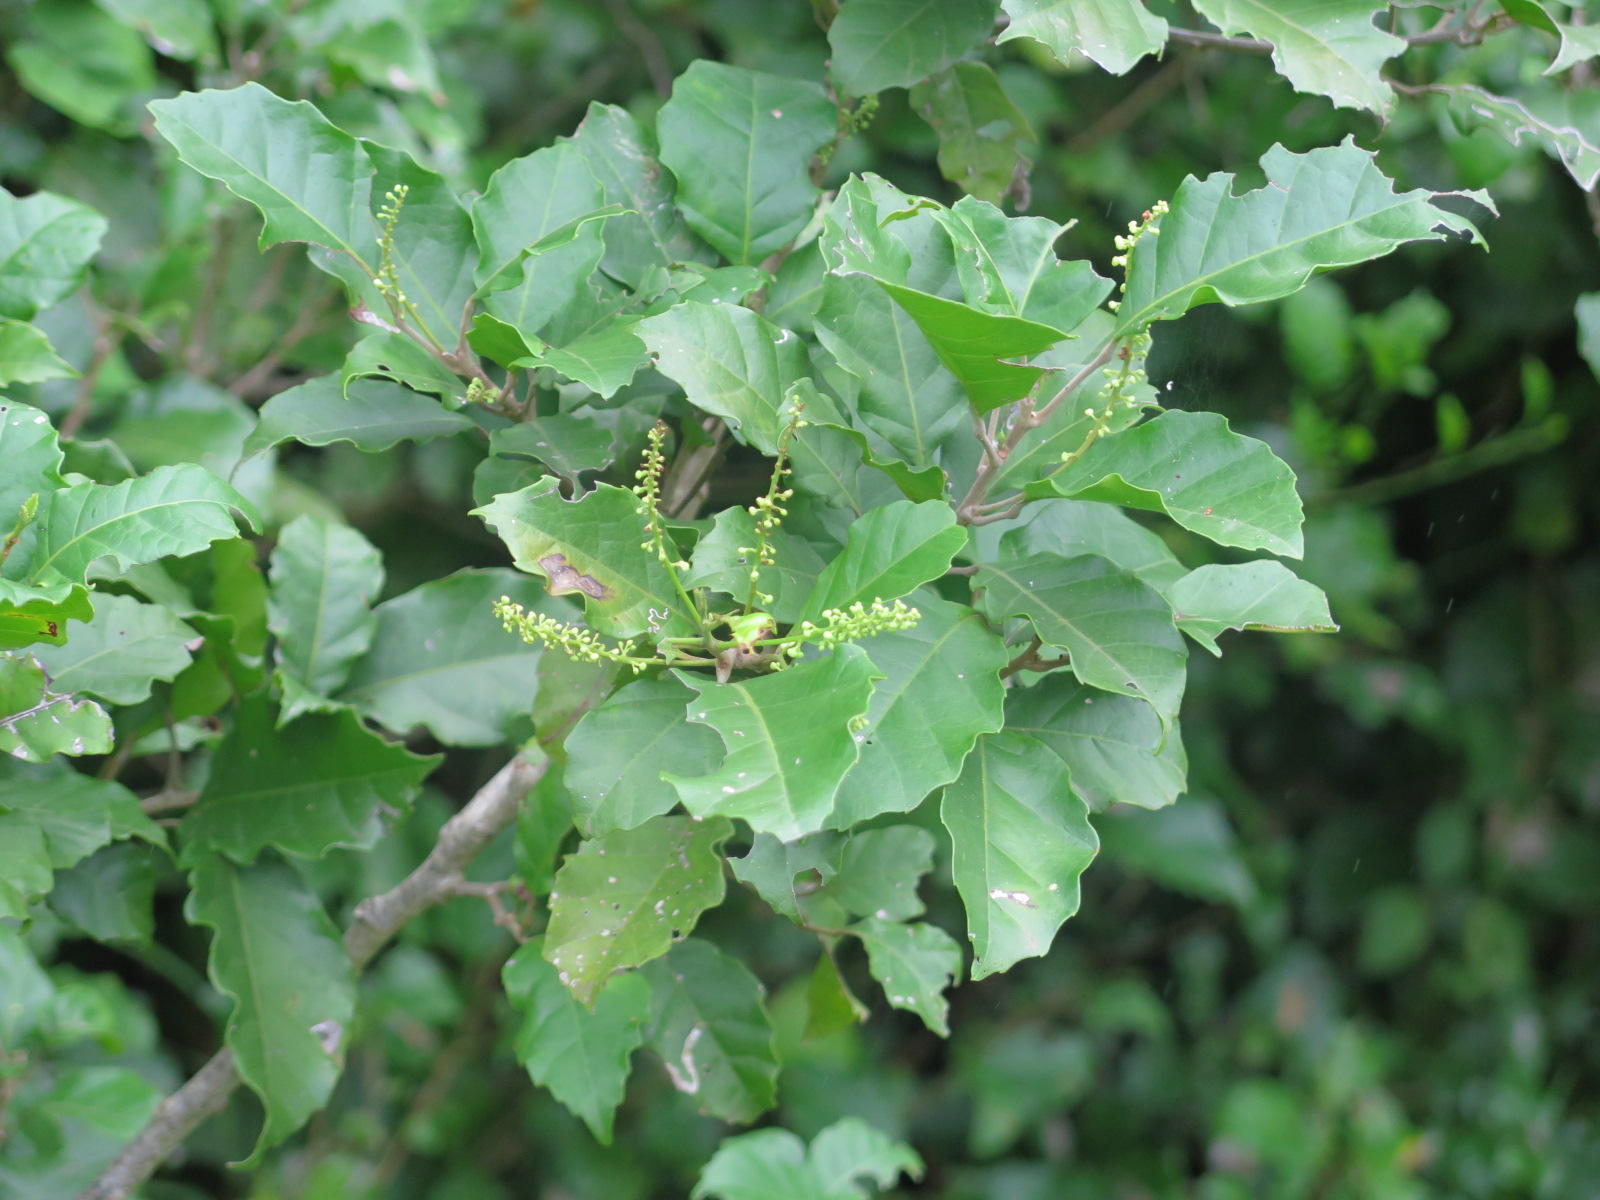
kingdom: Plantae
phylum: Tracheophyta
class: Magnoliopsida
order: Sapindales
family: Sapindaceae
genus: Allophylus
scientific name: Allophylus dregeanus
